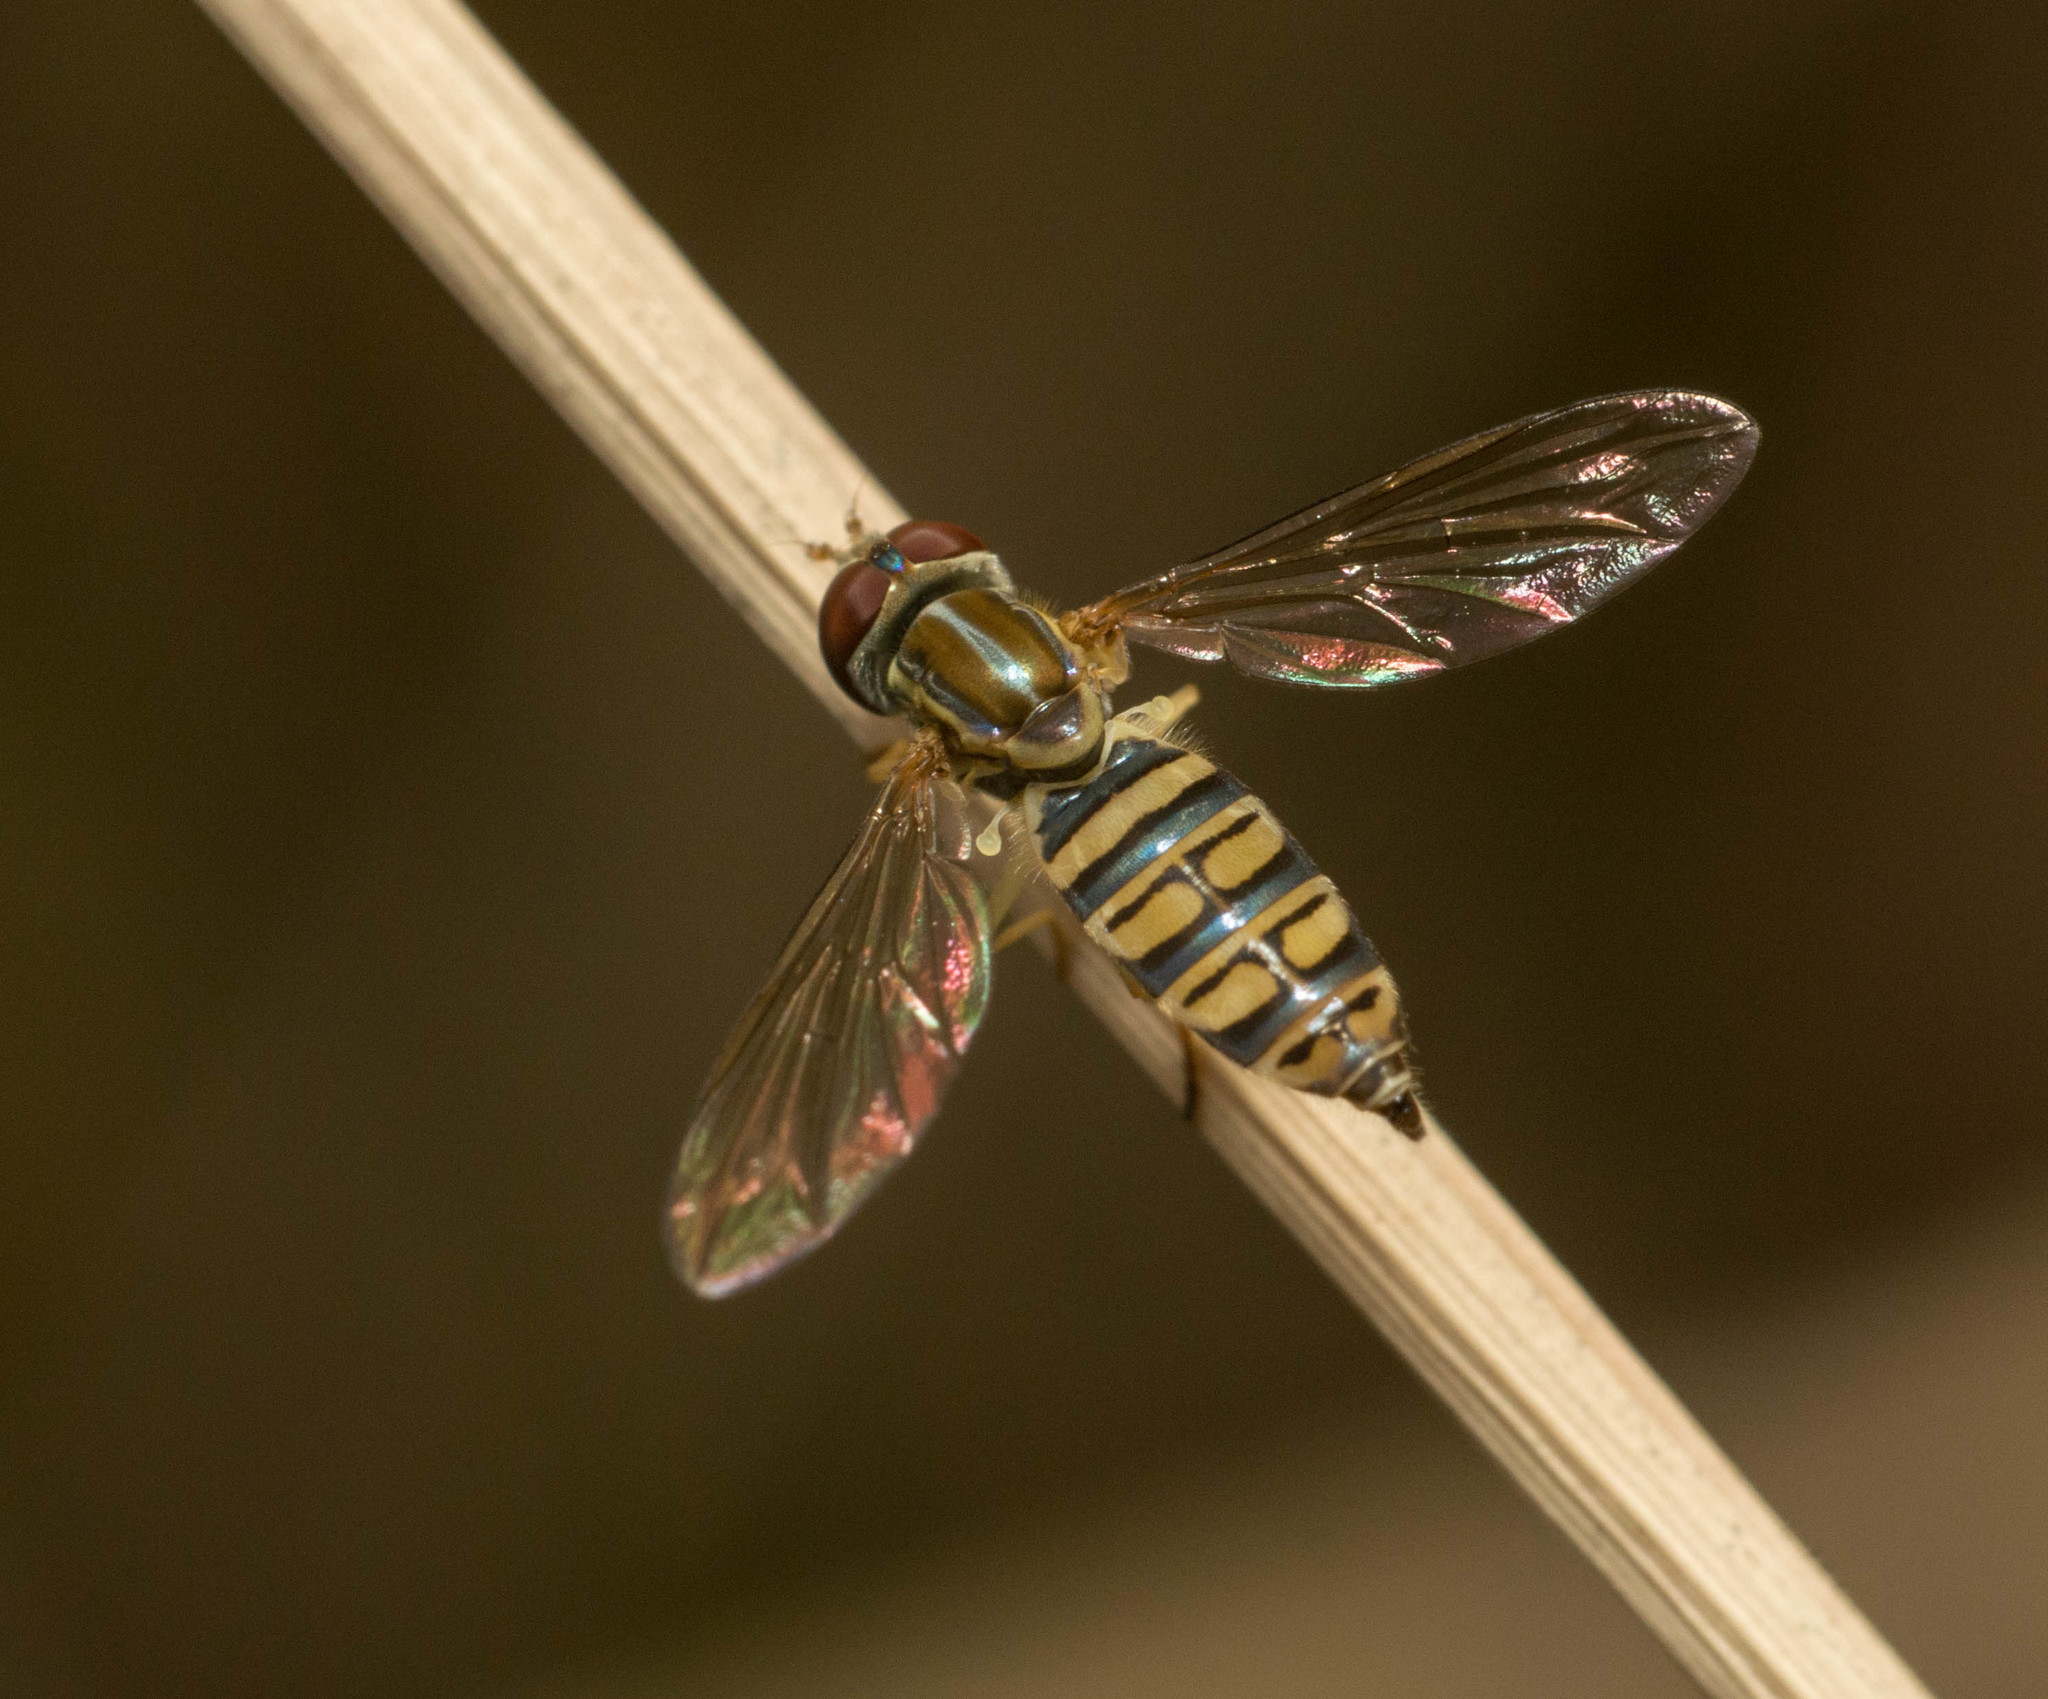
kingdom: Animalia
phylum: Arthropoda
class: Insecta
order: Diptera
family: Syrphidae
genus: Toxomerus
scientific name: Toxomerus politus
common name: Maize calligrapher
